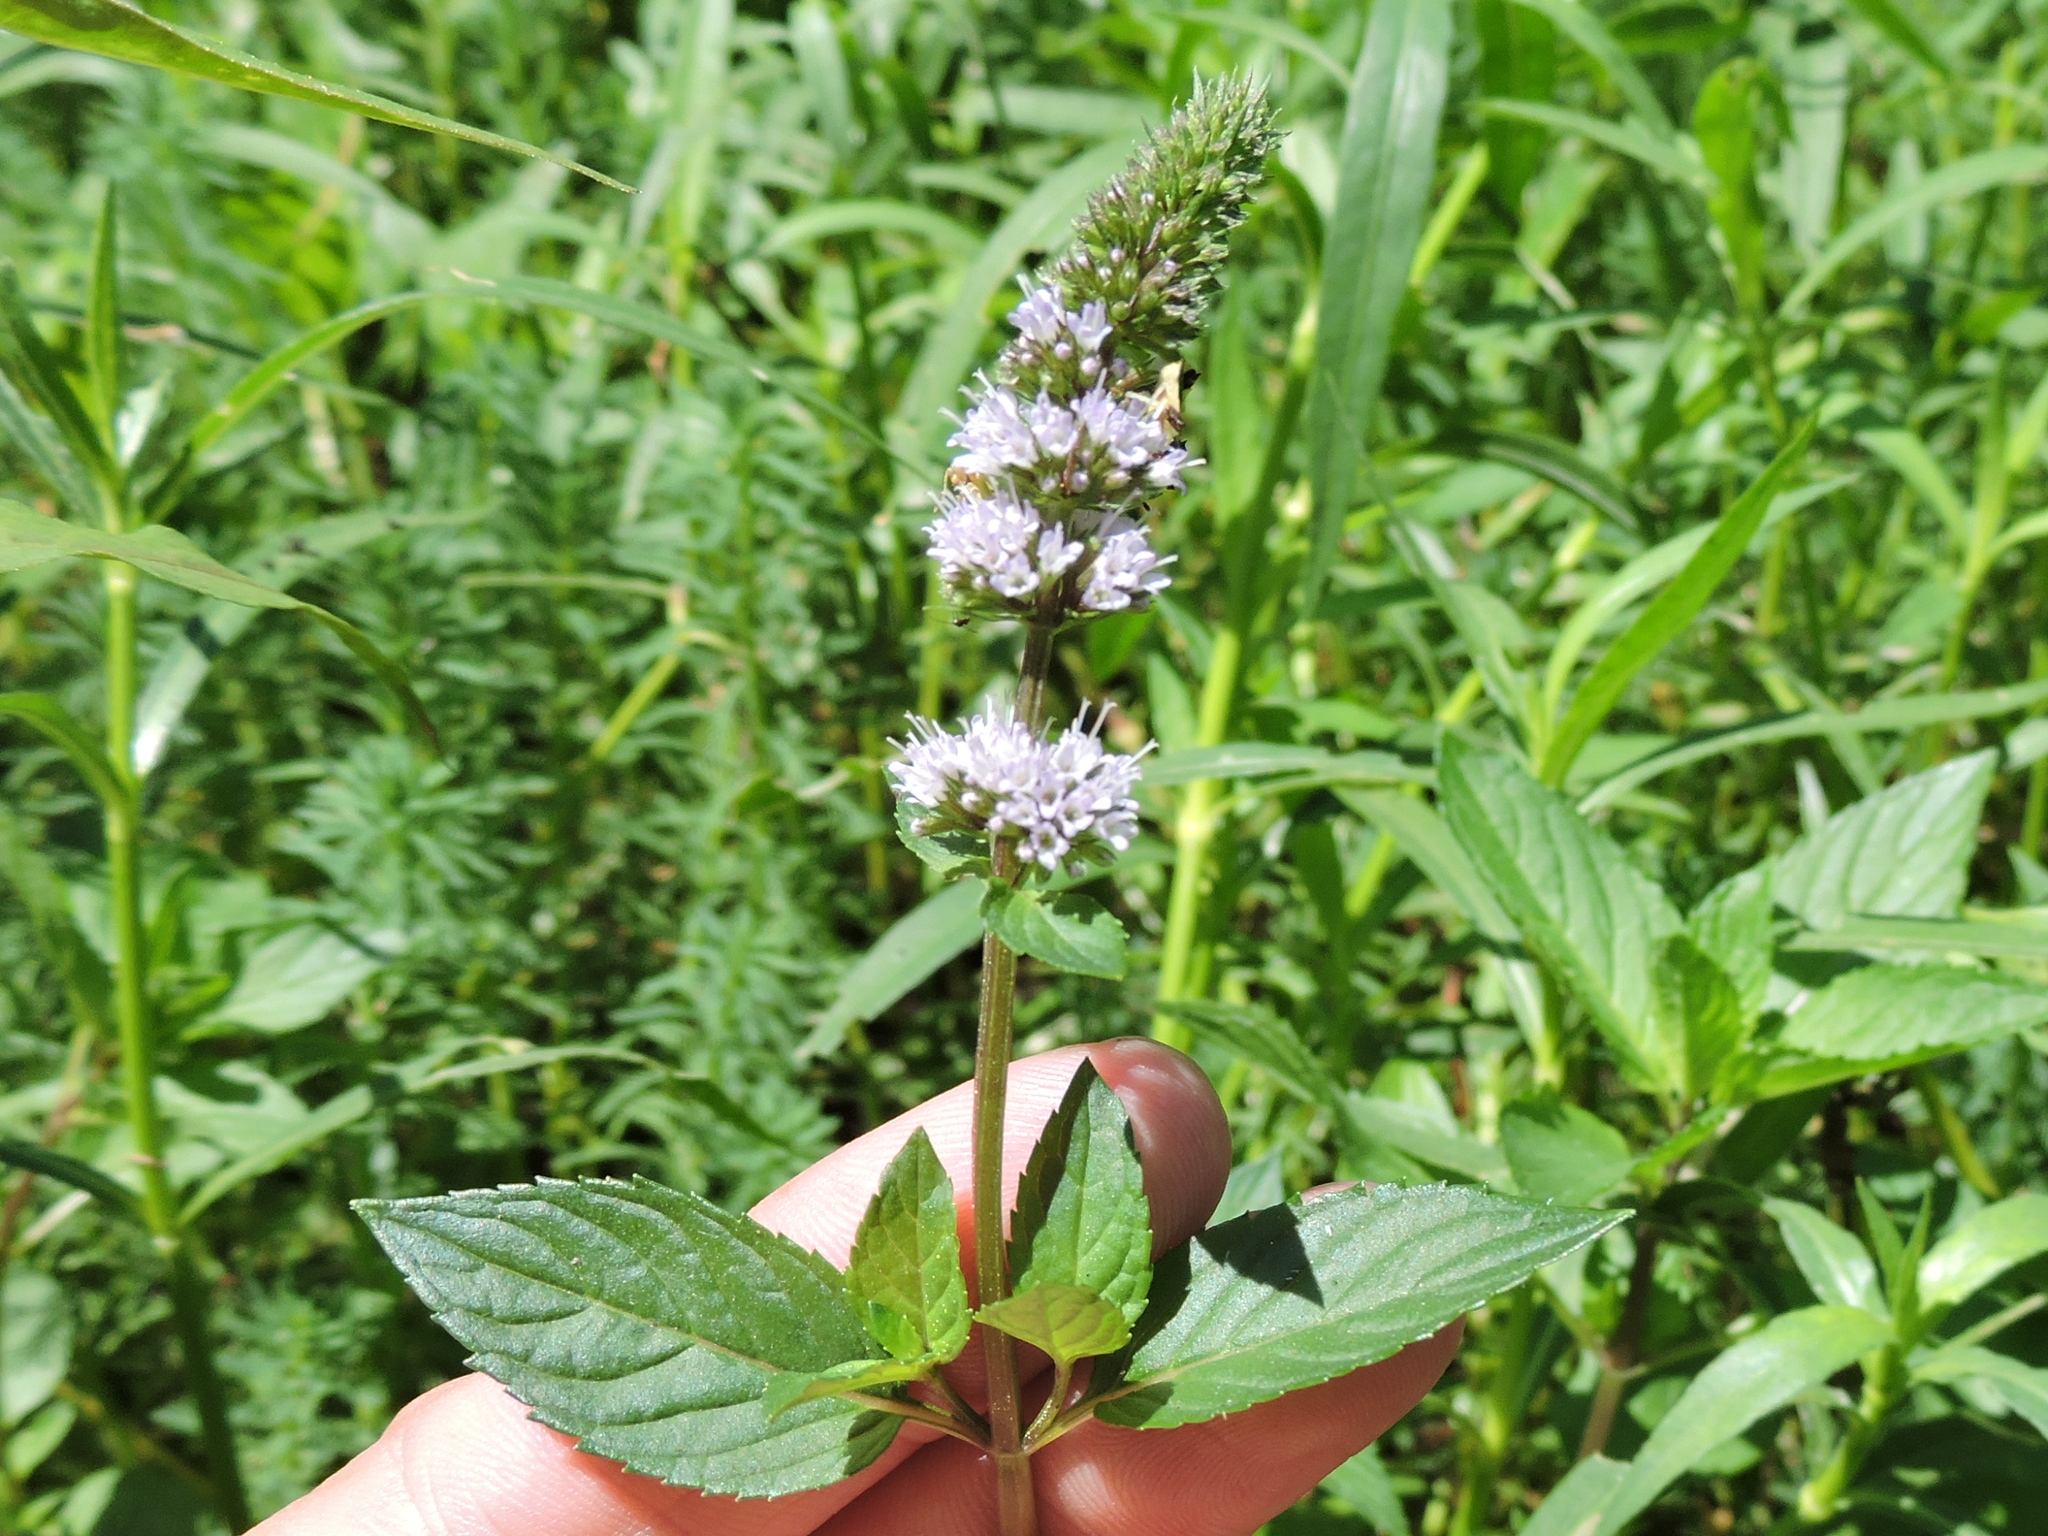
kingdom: Plantae
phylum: Tracheophyta
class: Magnoliopsida
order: Lamiales
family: Lamiaceae
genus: Mentha
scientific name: Mentha piperita
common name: Peppermint
